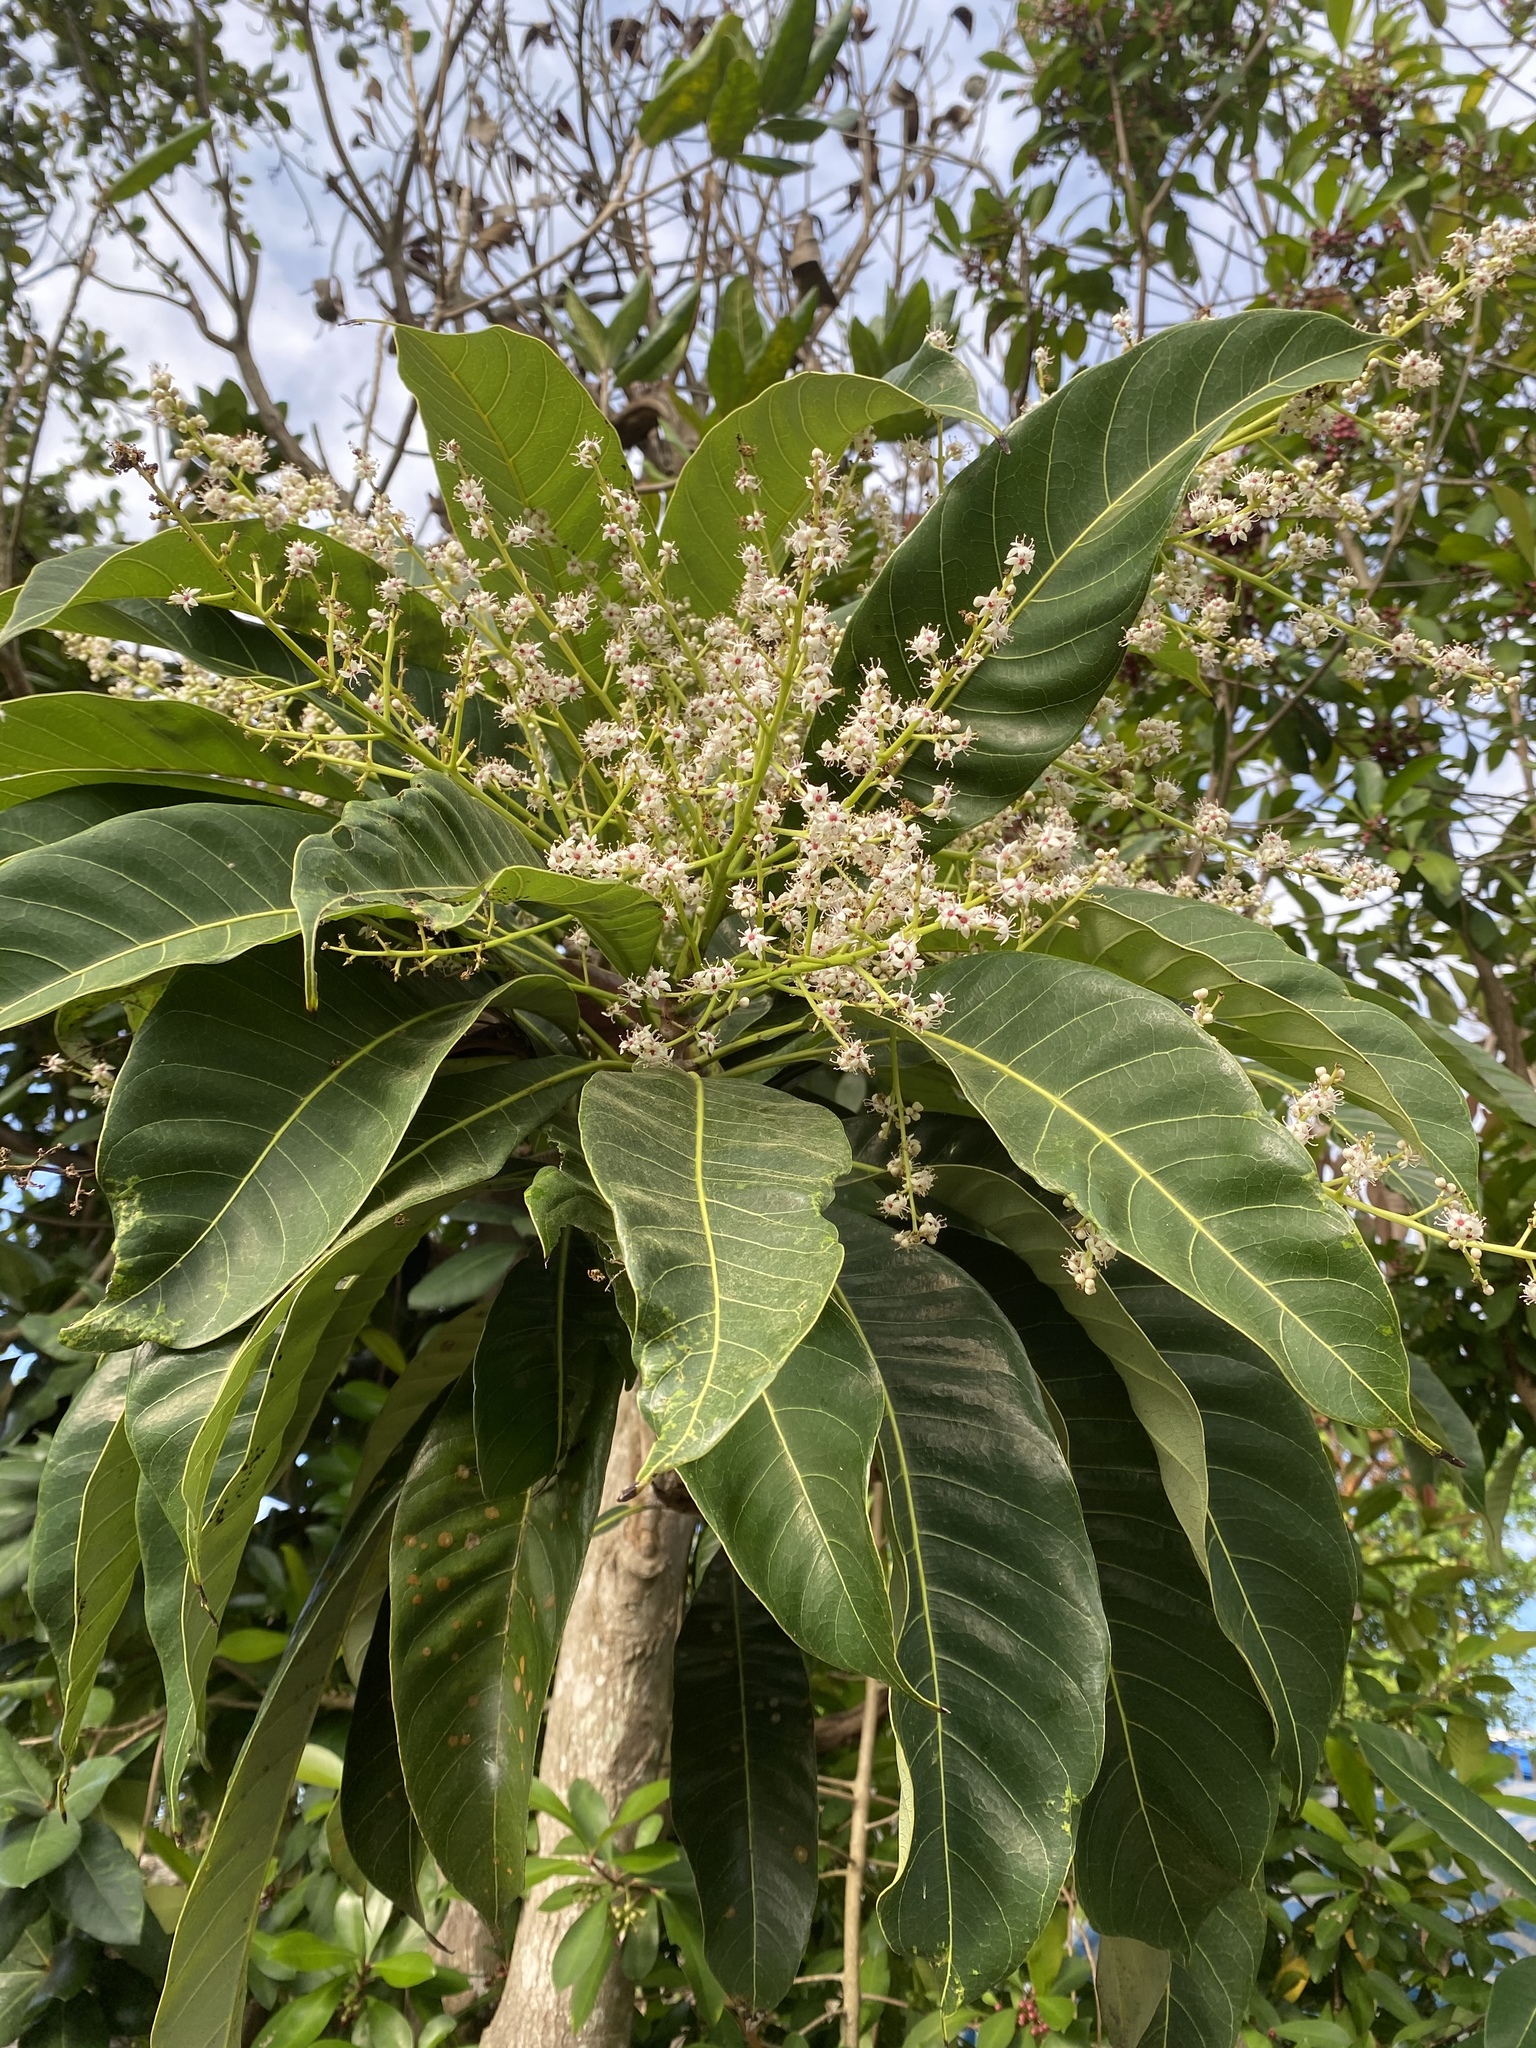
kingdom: Plantae
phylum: Tracheophyta
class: Magnoliopsida
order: Sapindales
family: Anacardiaceae
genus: Semecarpus
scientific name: Semecarpus longifolius
